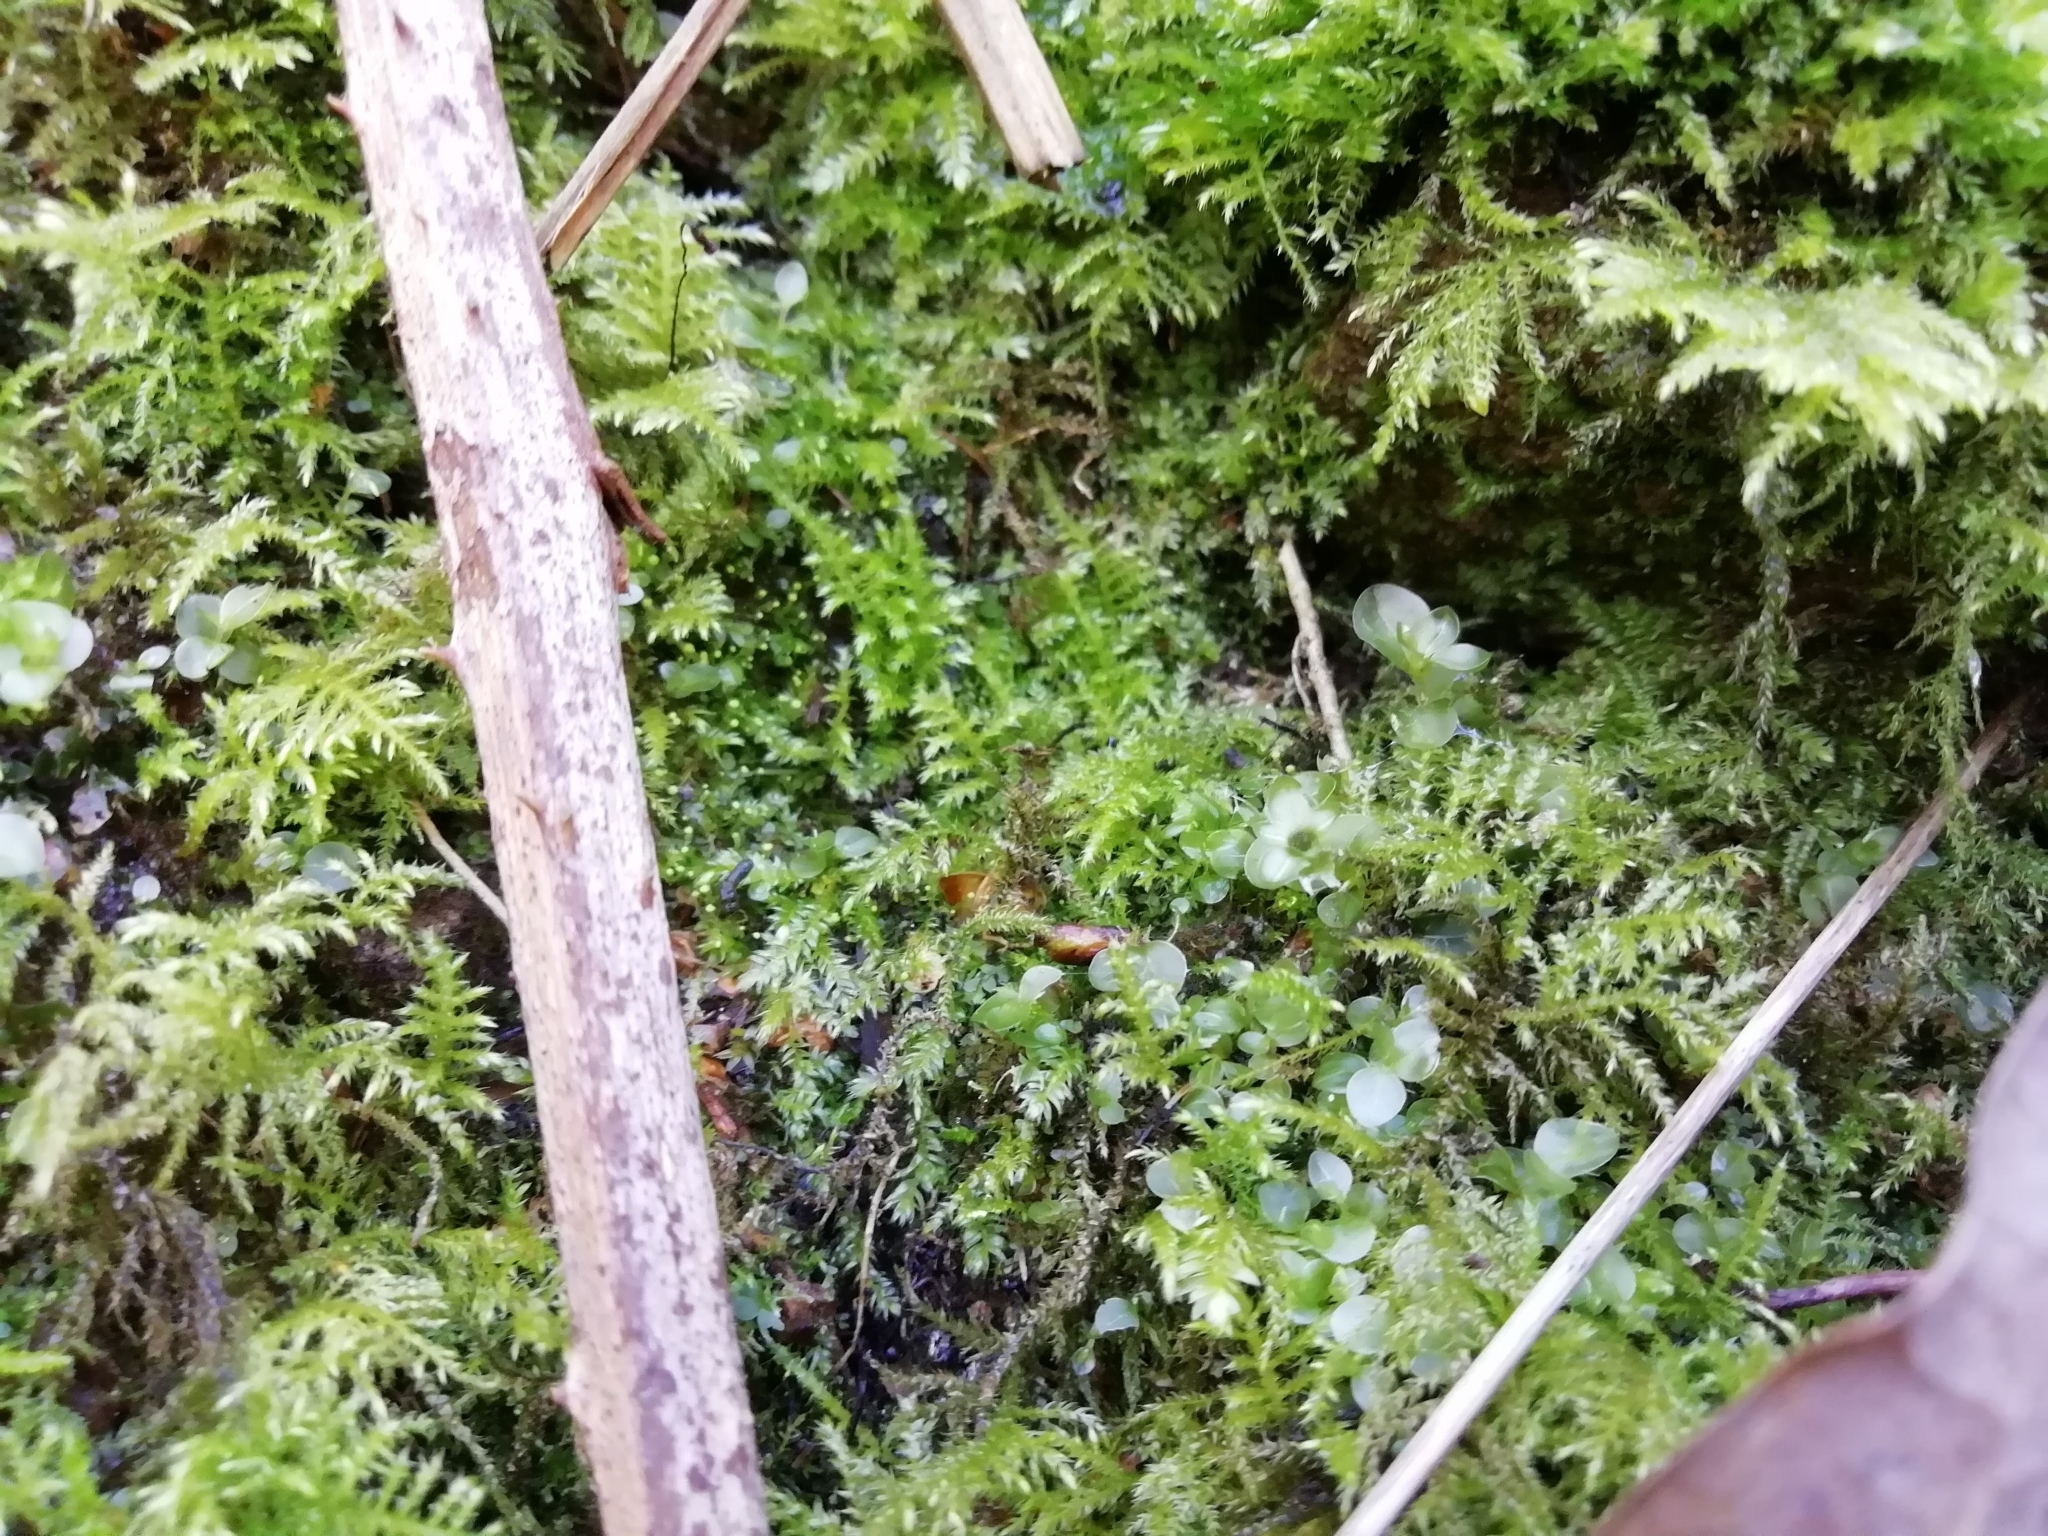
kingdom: Plantae
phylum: Bryophyta
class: Bryopsida
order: Bryales
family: Mniaceae
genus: Rhizomnium
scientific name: Rhizomnium punctatum
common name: Dotted leafy moss
